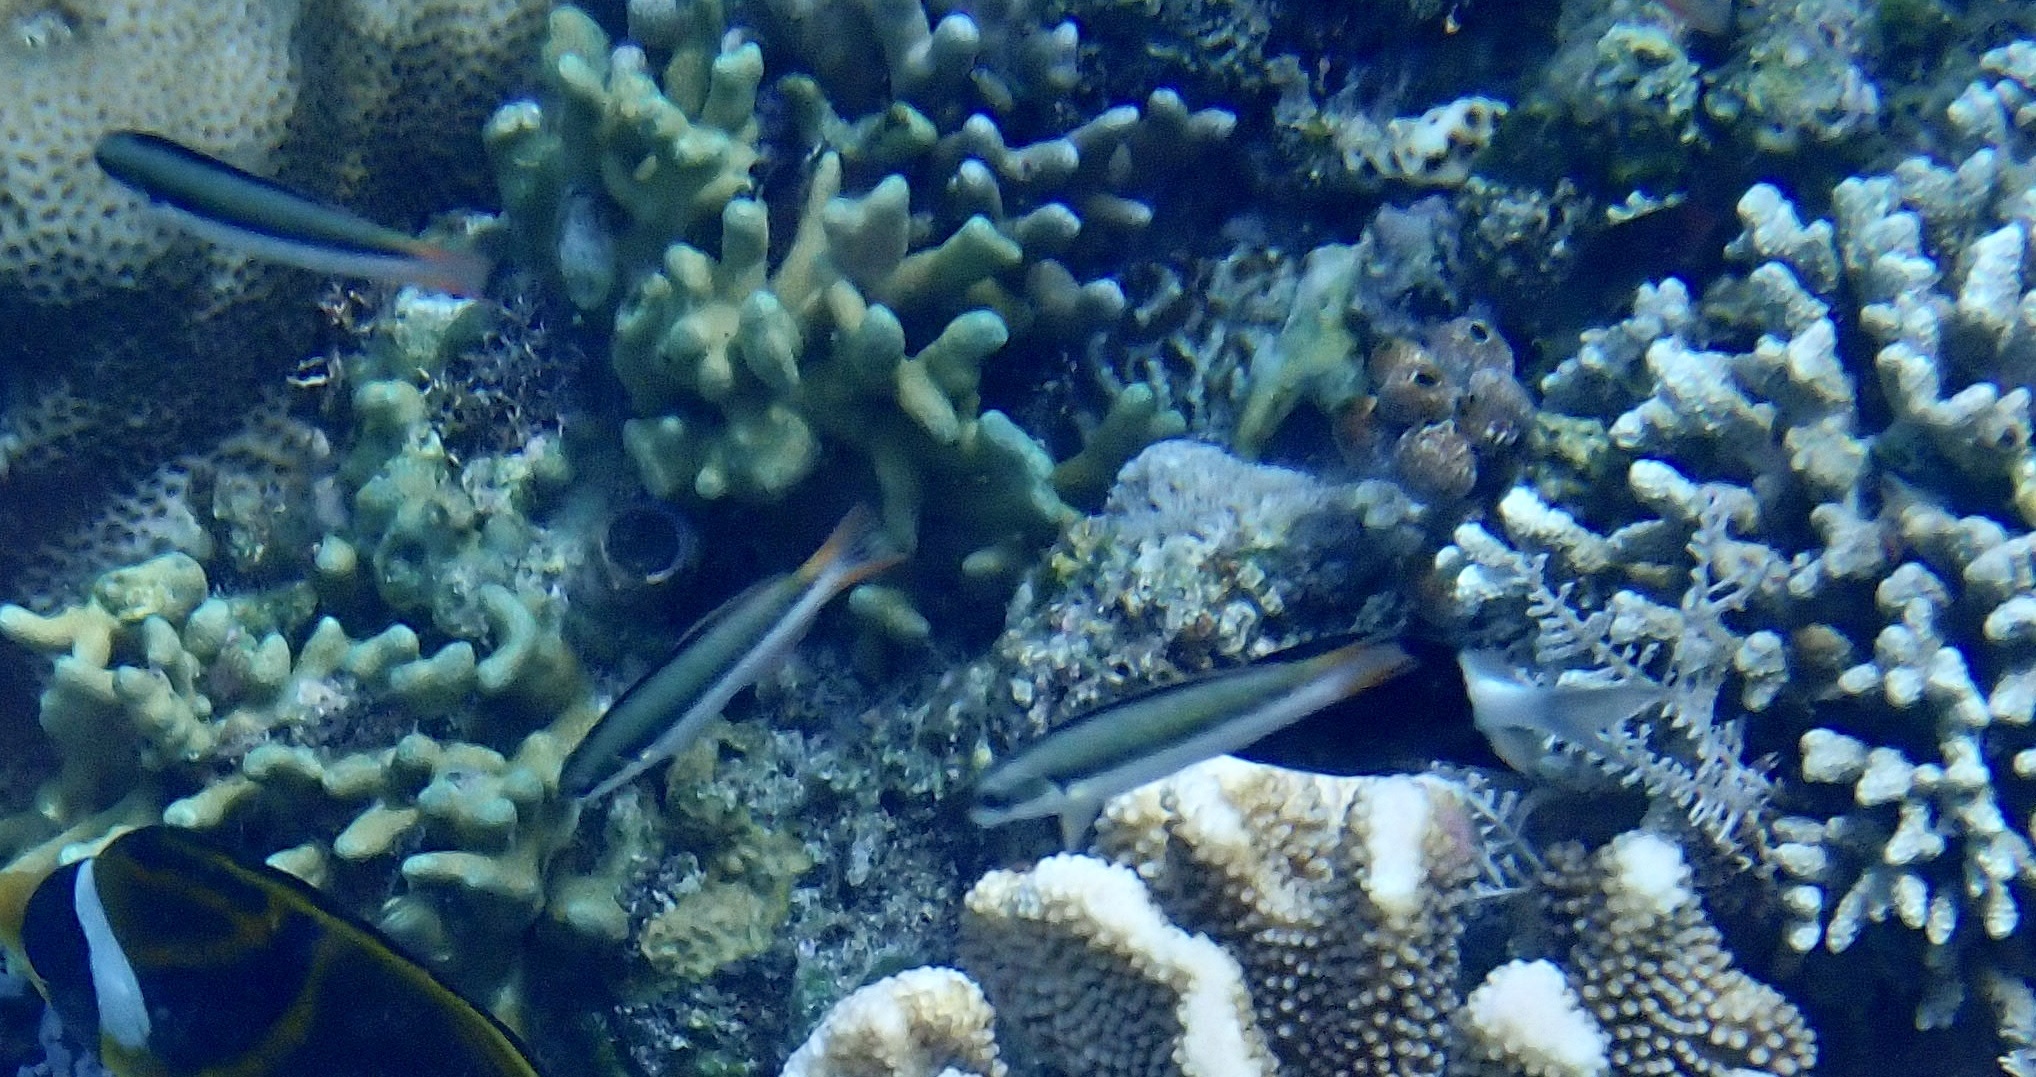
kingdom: Animalia
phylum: Chordata
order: Perciformes
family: Labridae
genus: Thalassoma
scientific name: Thalassoma amblycephalum
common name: Bluehead wrasse
